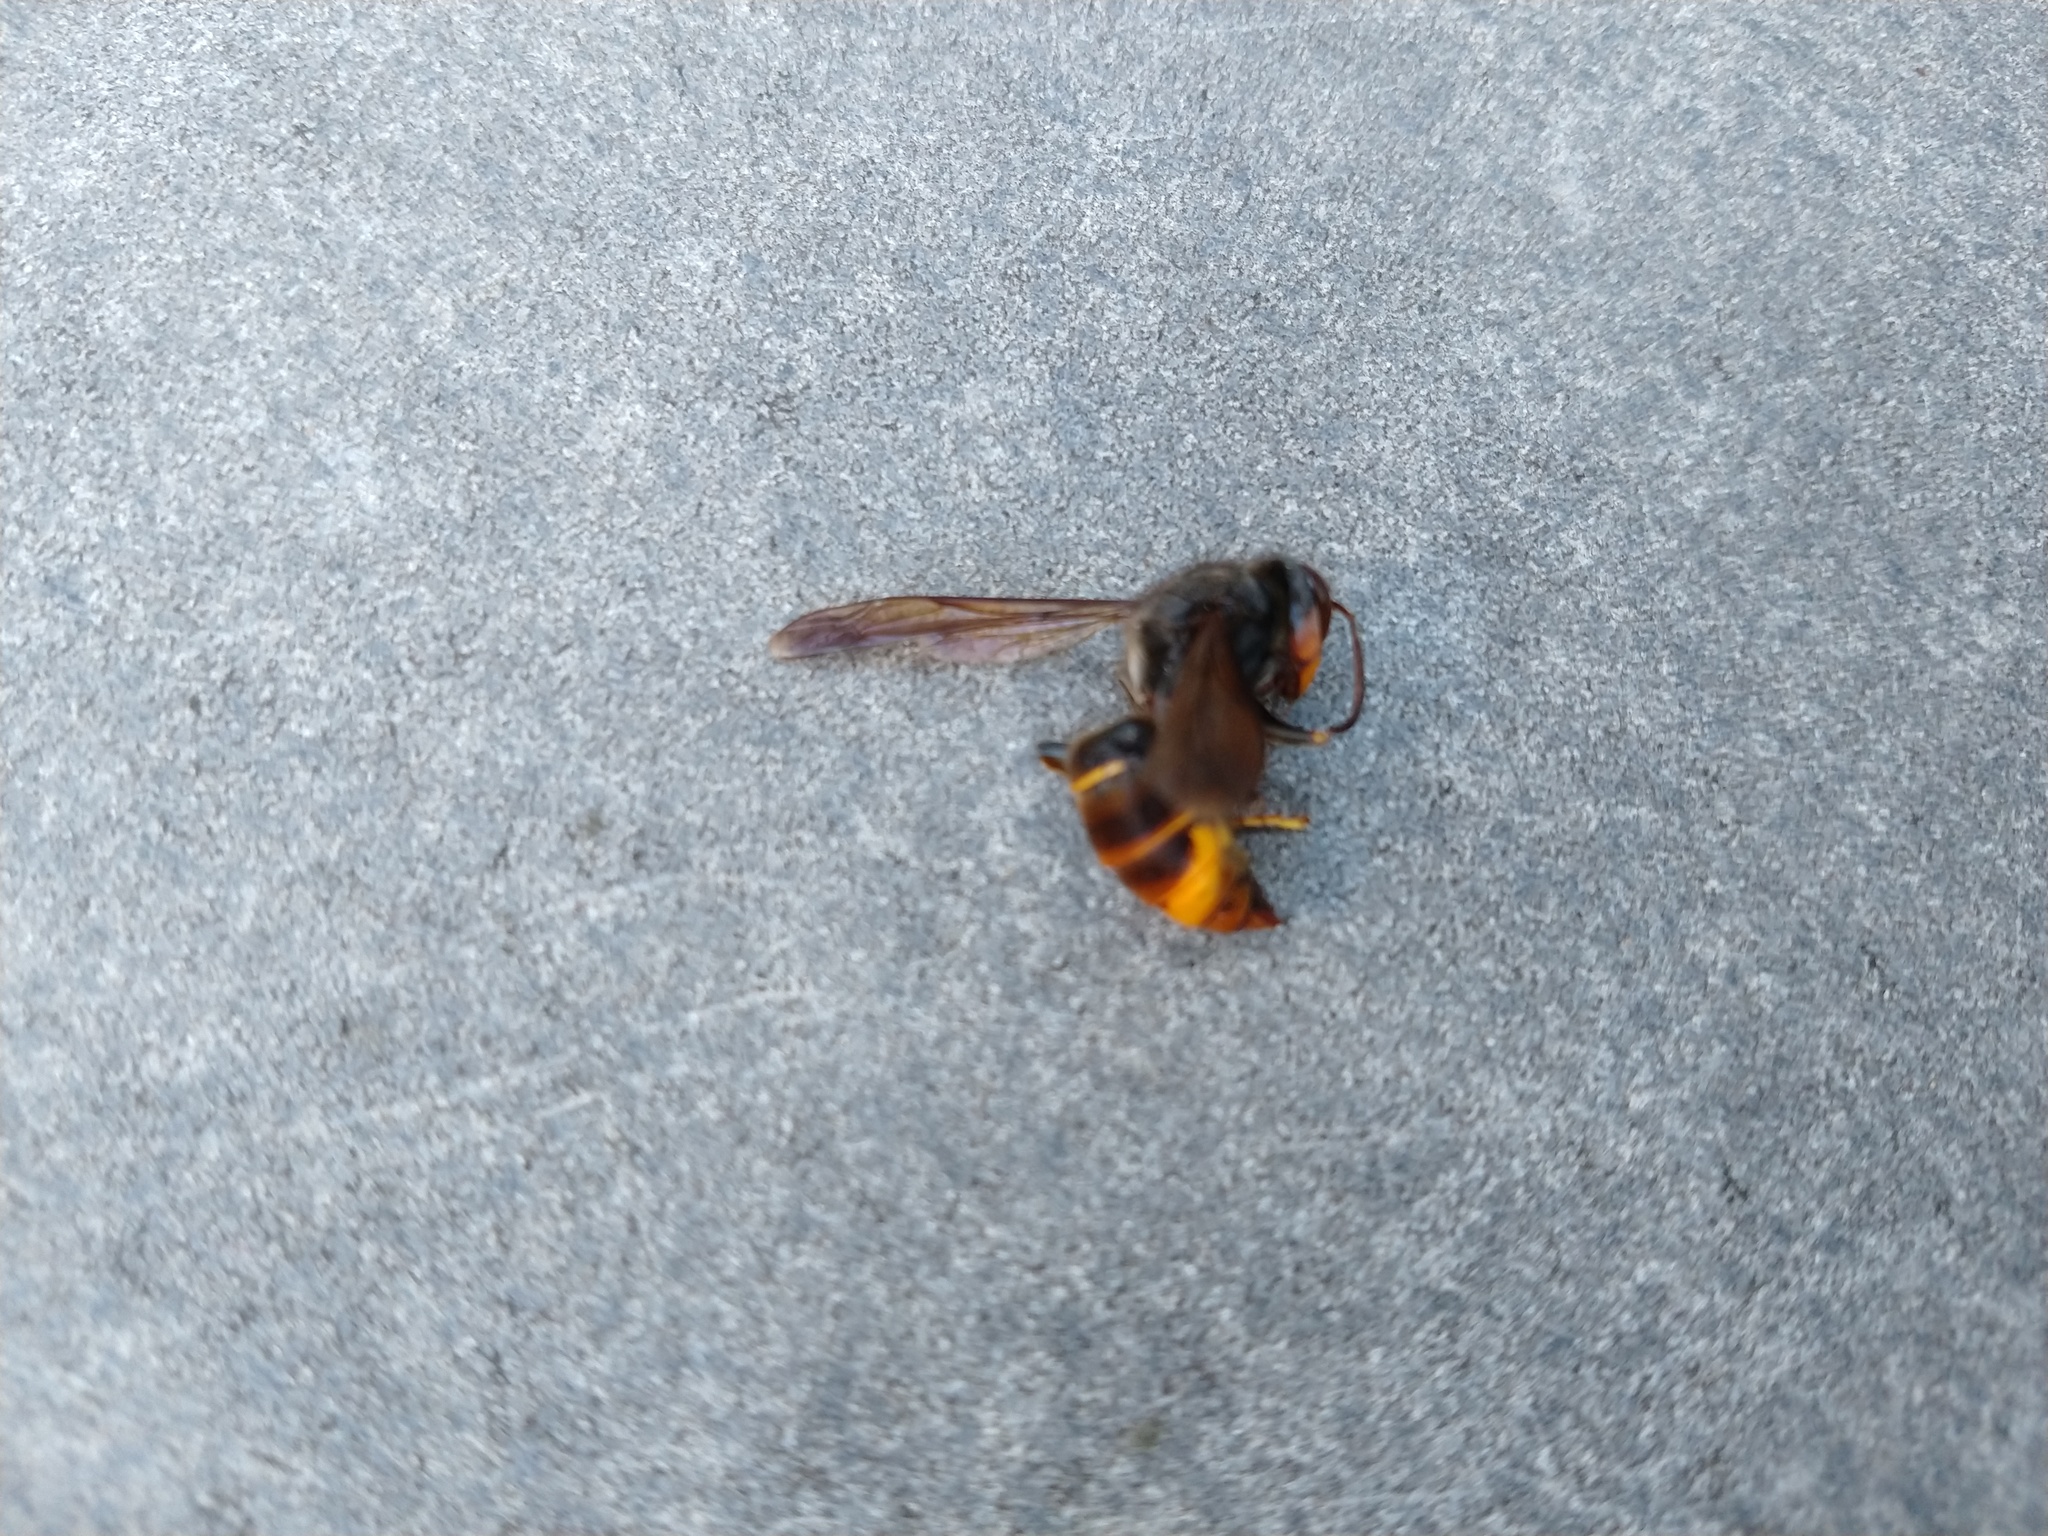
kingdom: Animalia
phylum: Arthropoda
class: Insecta
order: Hymenoptera
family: Vespidae
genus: Vespa
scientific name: Vespa velutina
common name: Asian hornet
